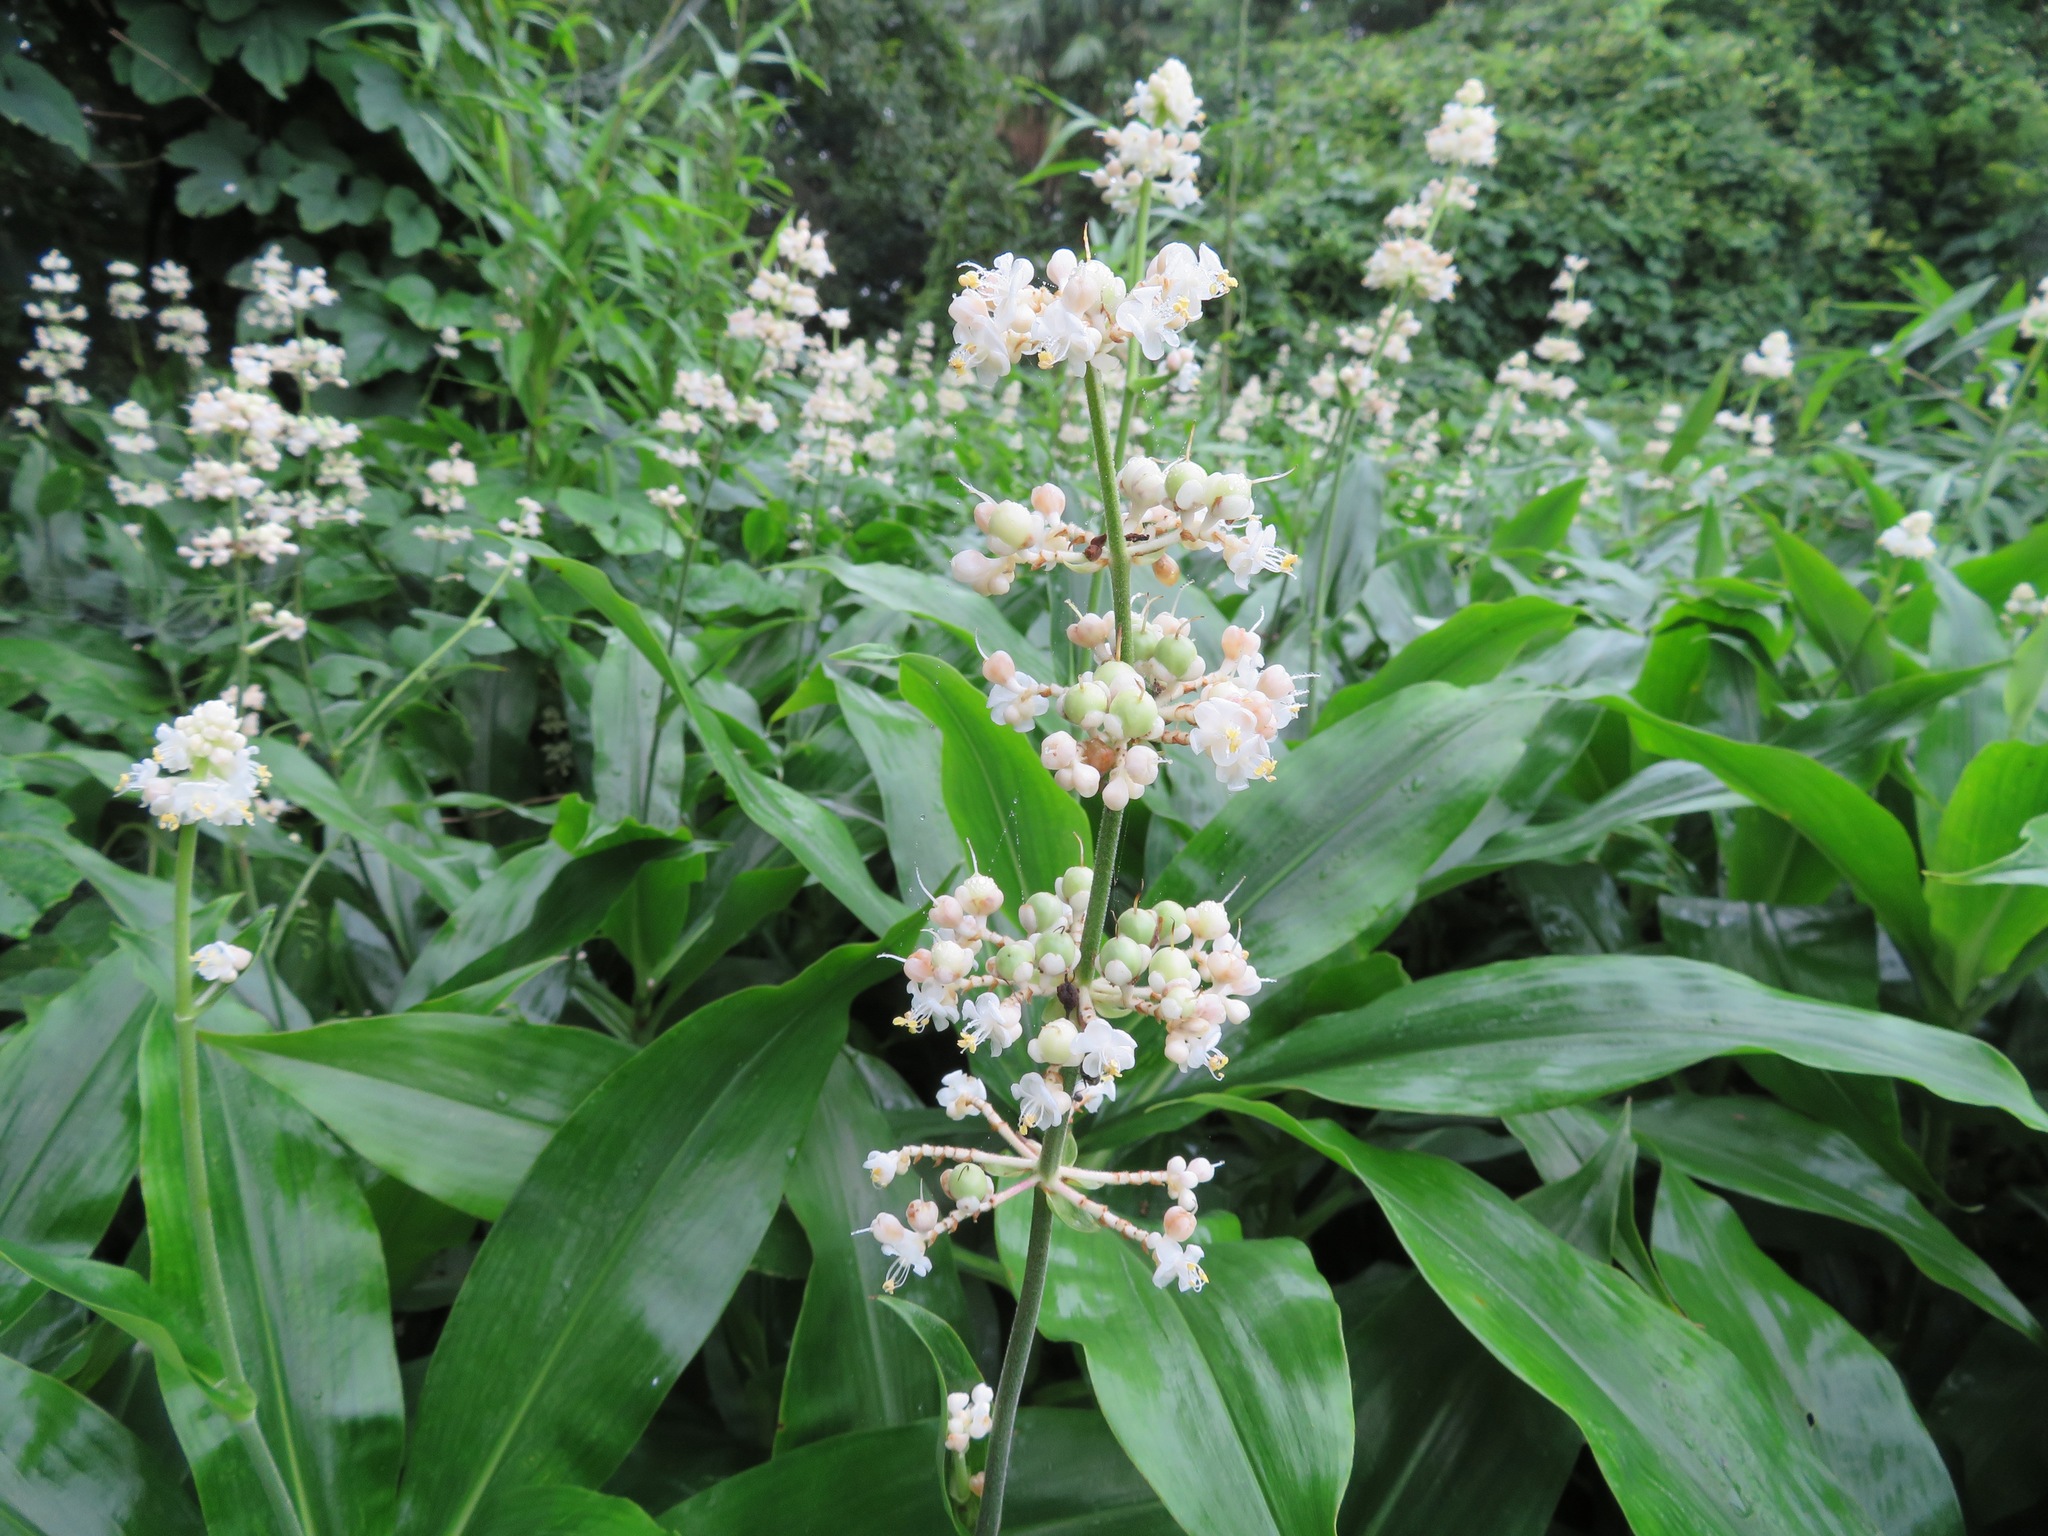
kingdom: Plantae
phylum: Tracheophyta
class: Liliopsida
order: Commelinales
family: Commelinaceae
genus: Pollia
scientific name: Pollia japonica
